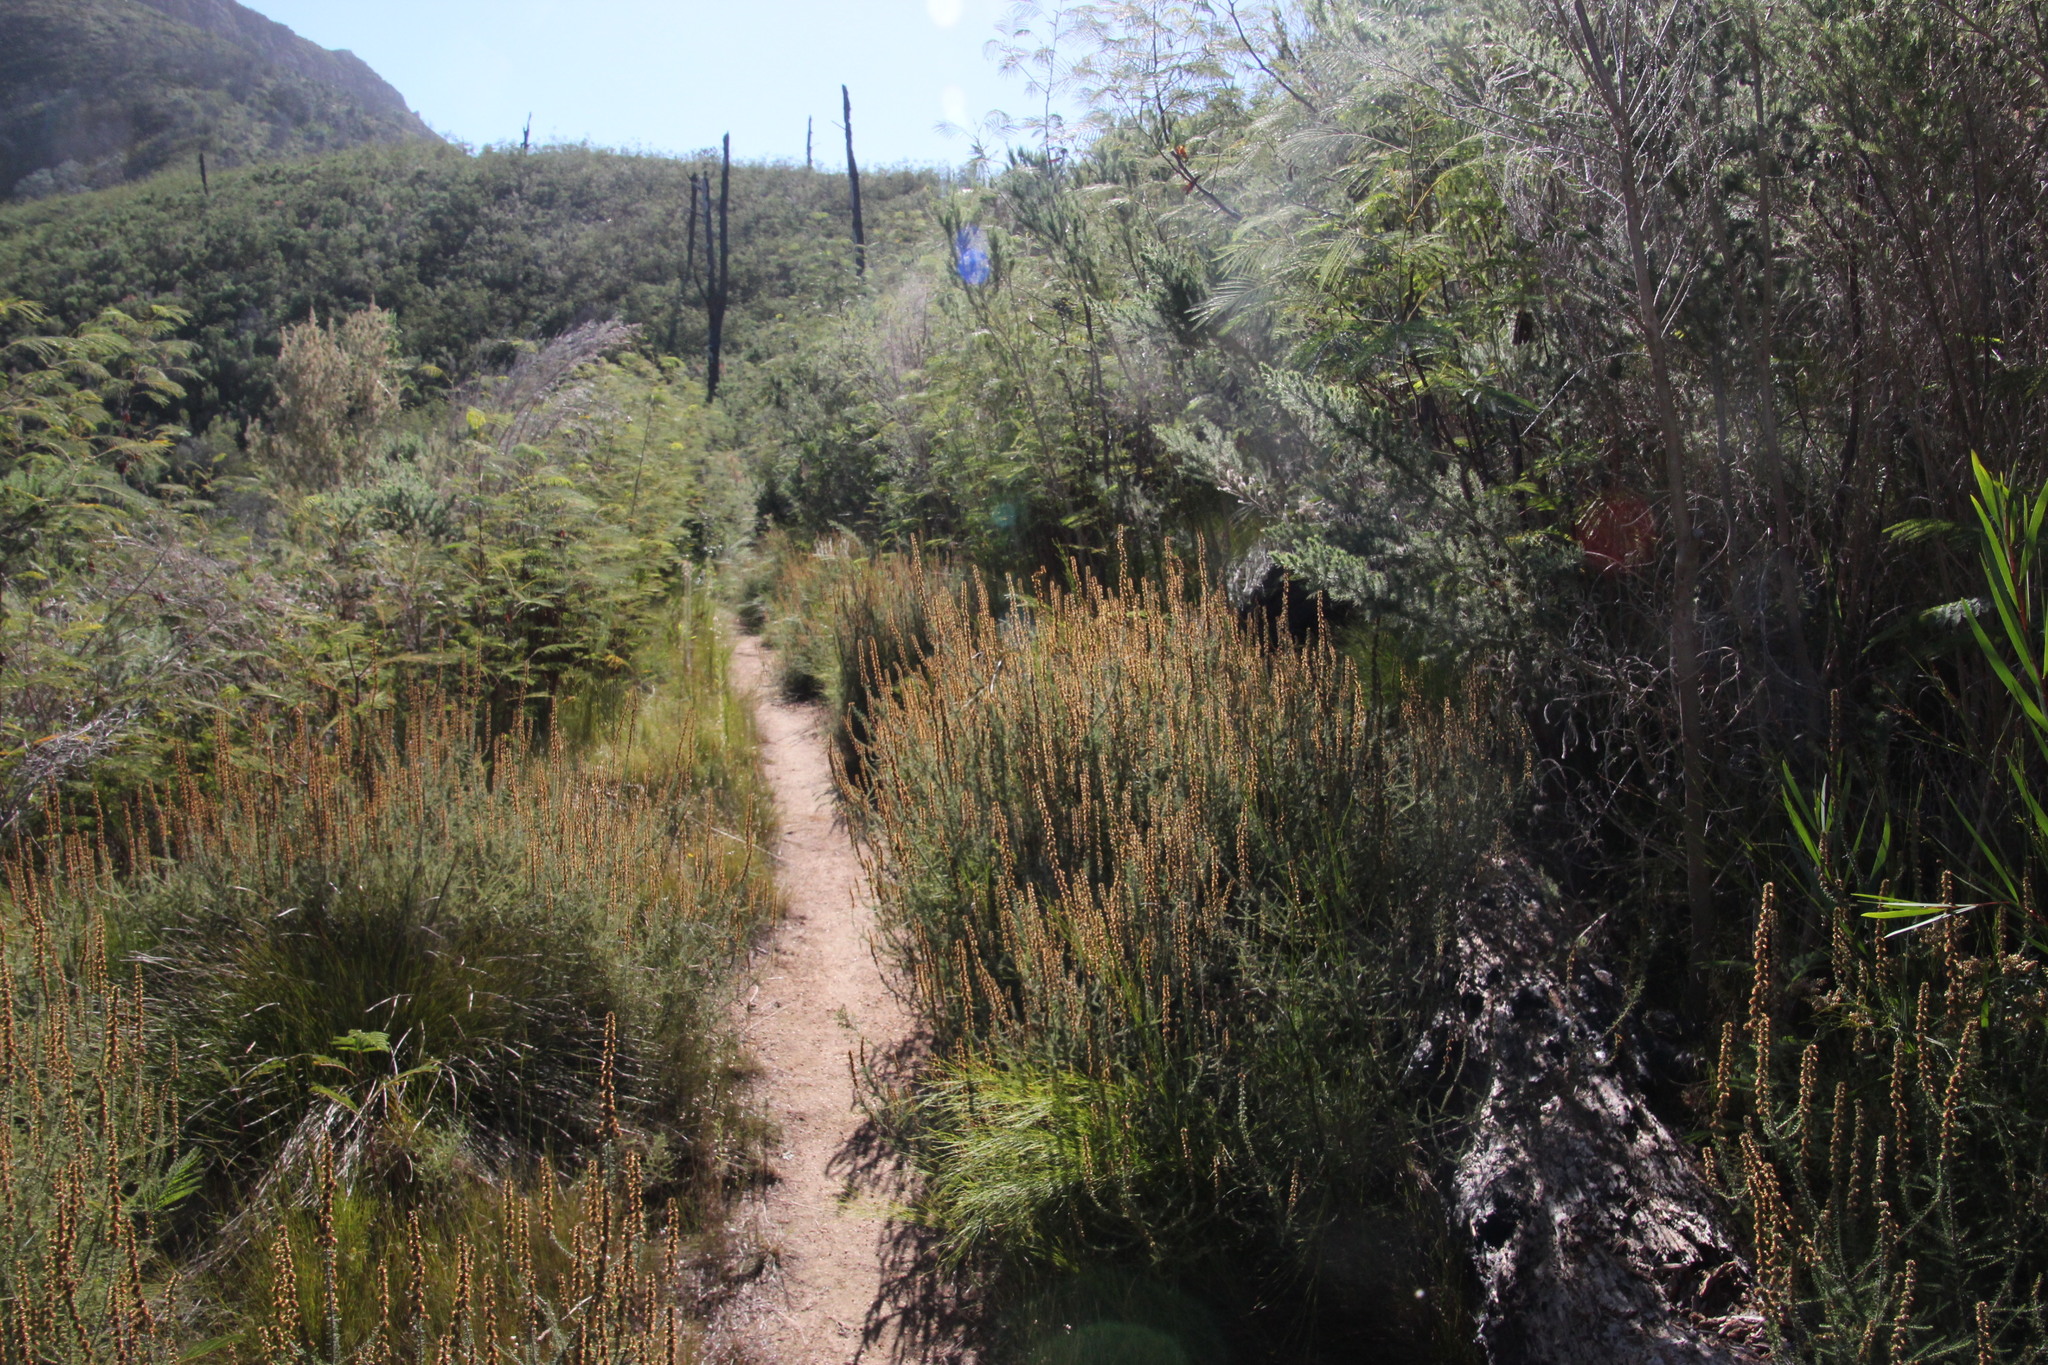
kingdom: Plantae
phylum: Tracheophyta
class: Magnoliopsida
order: Asterales
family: Asteraceae
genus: Seriphium
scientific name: Seriphium cinereum
